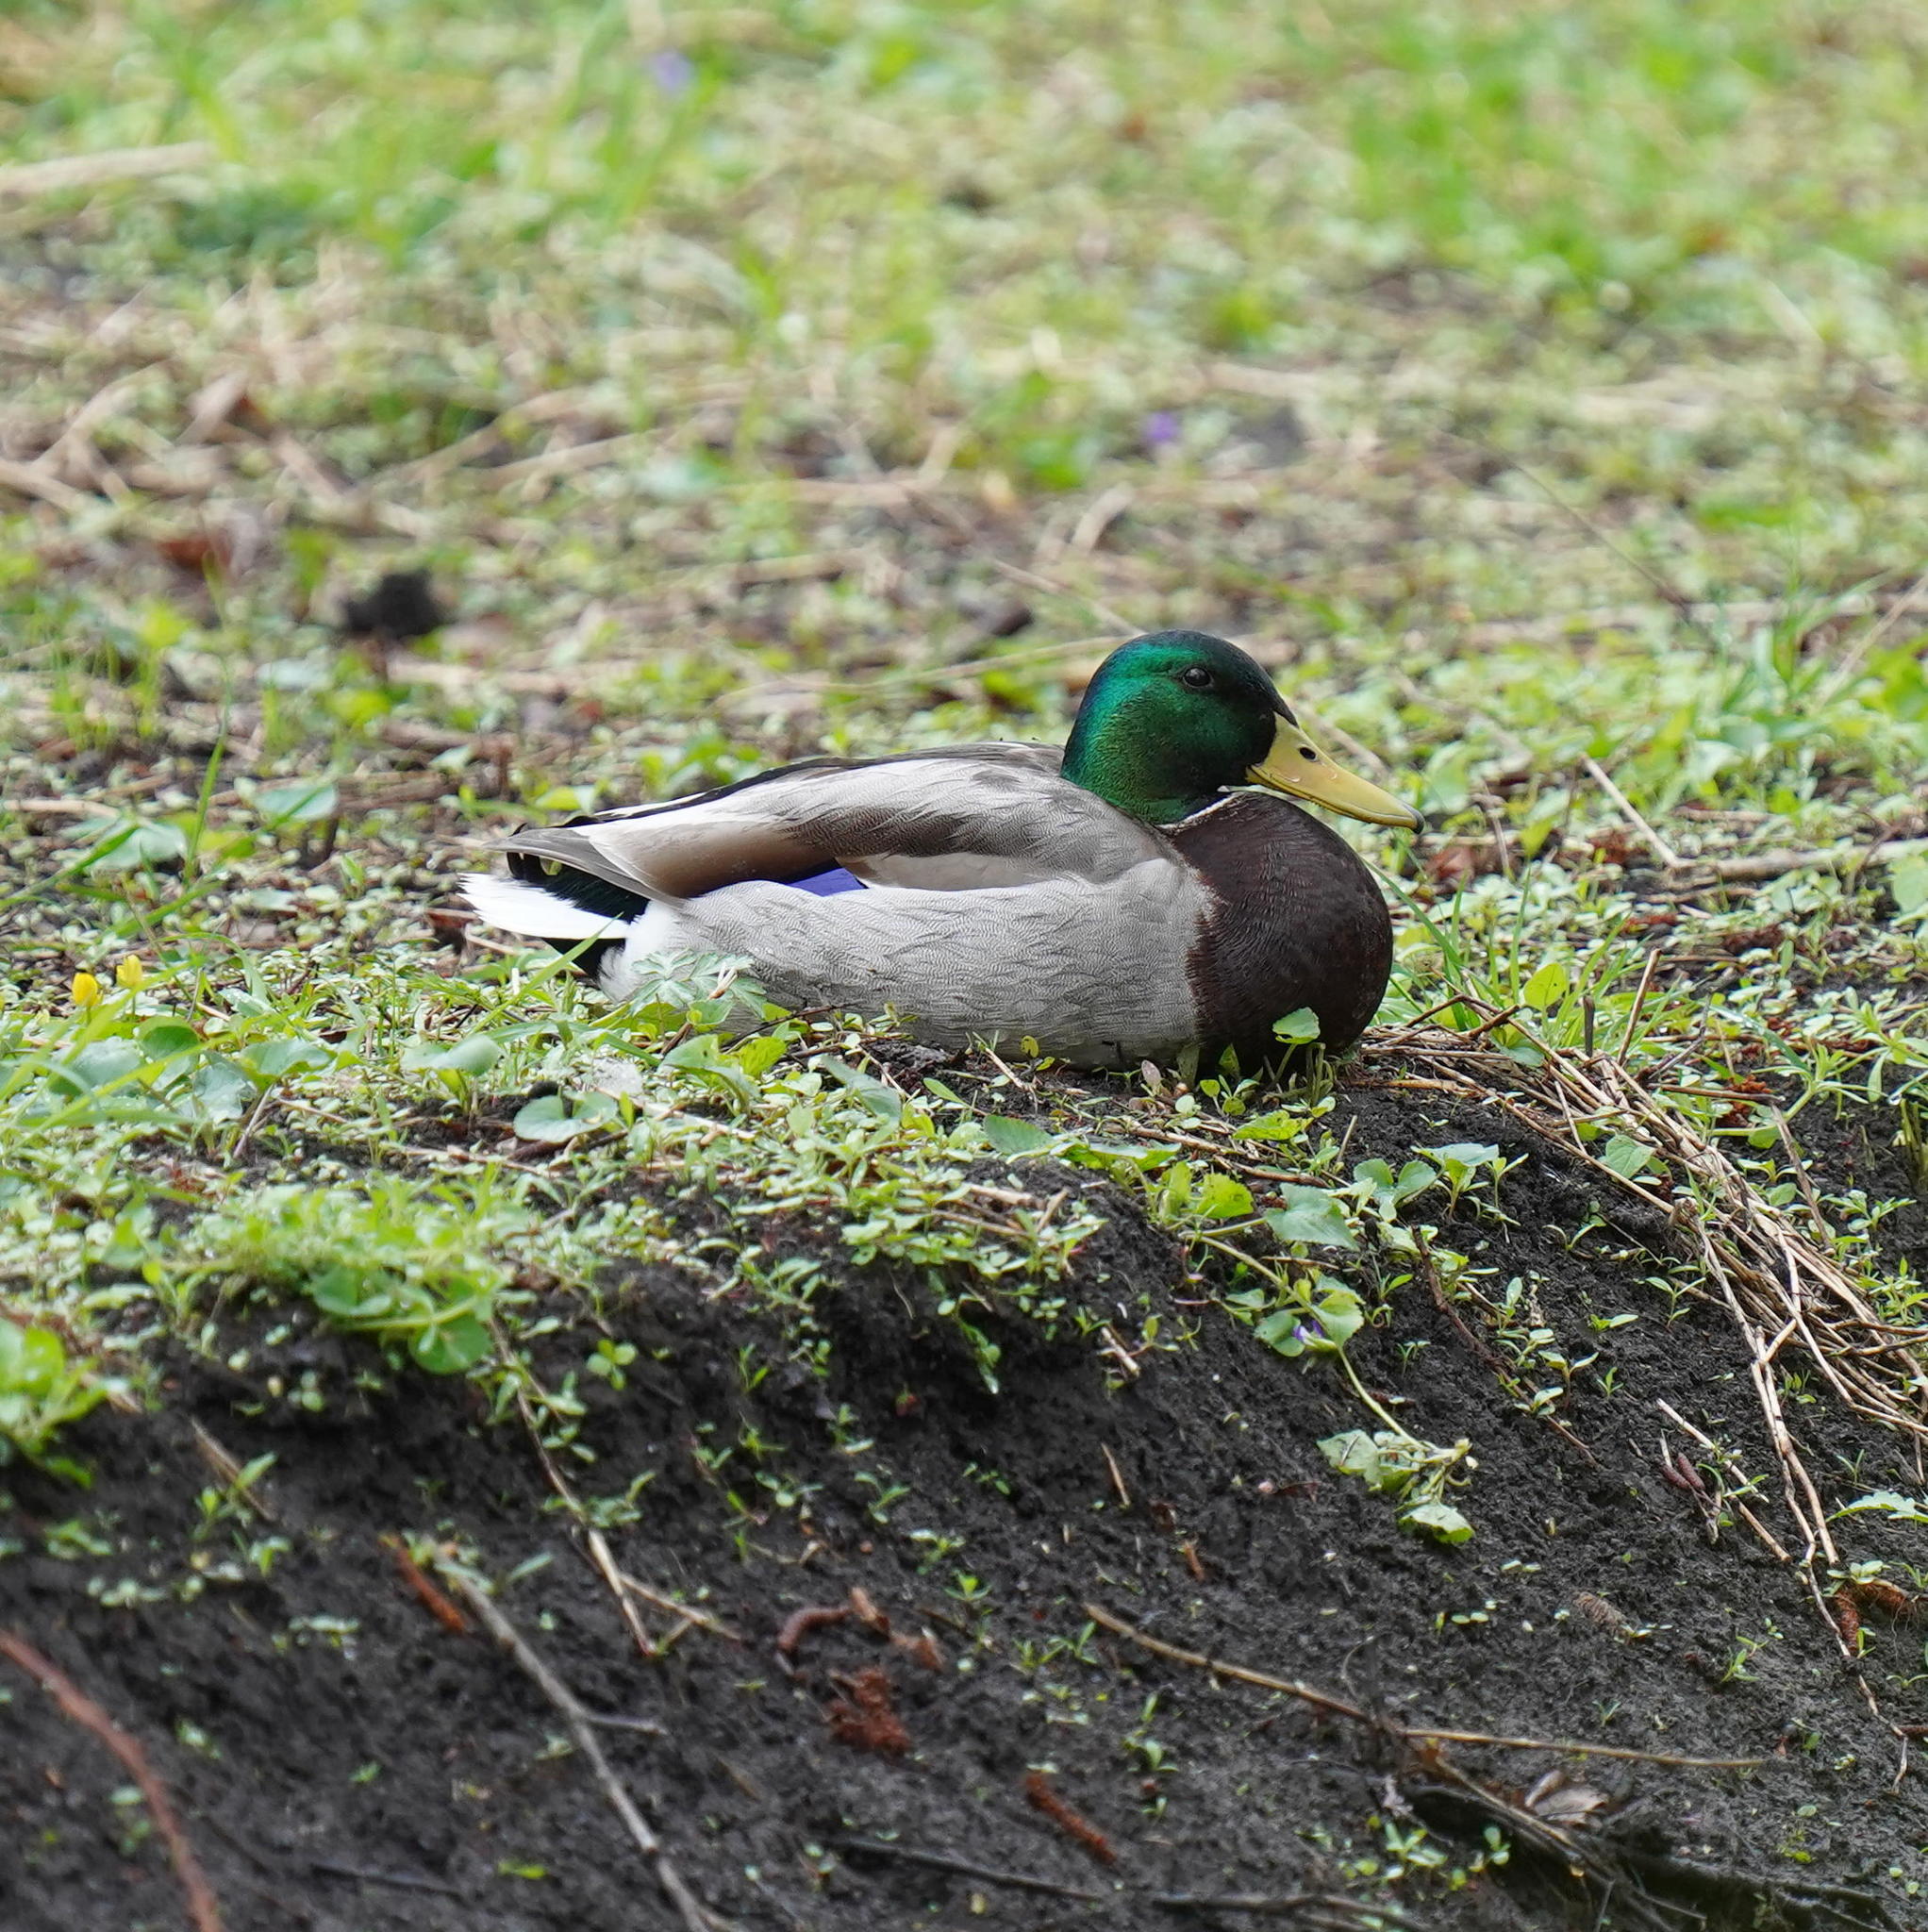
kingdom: Animalia
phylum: Chordata
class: Aves
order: Anseriformes
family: Anatidae
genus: Anas
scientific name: Anas platyrhynchos
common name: Mallard
